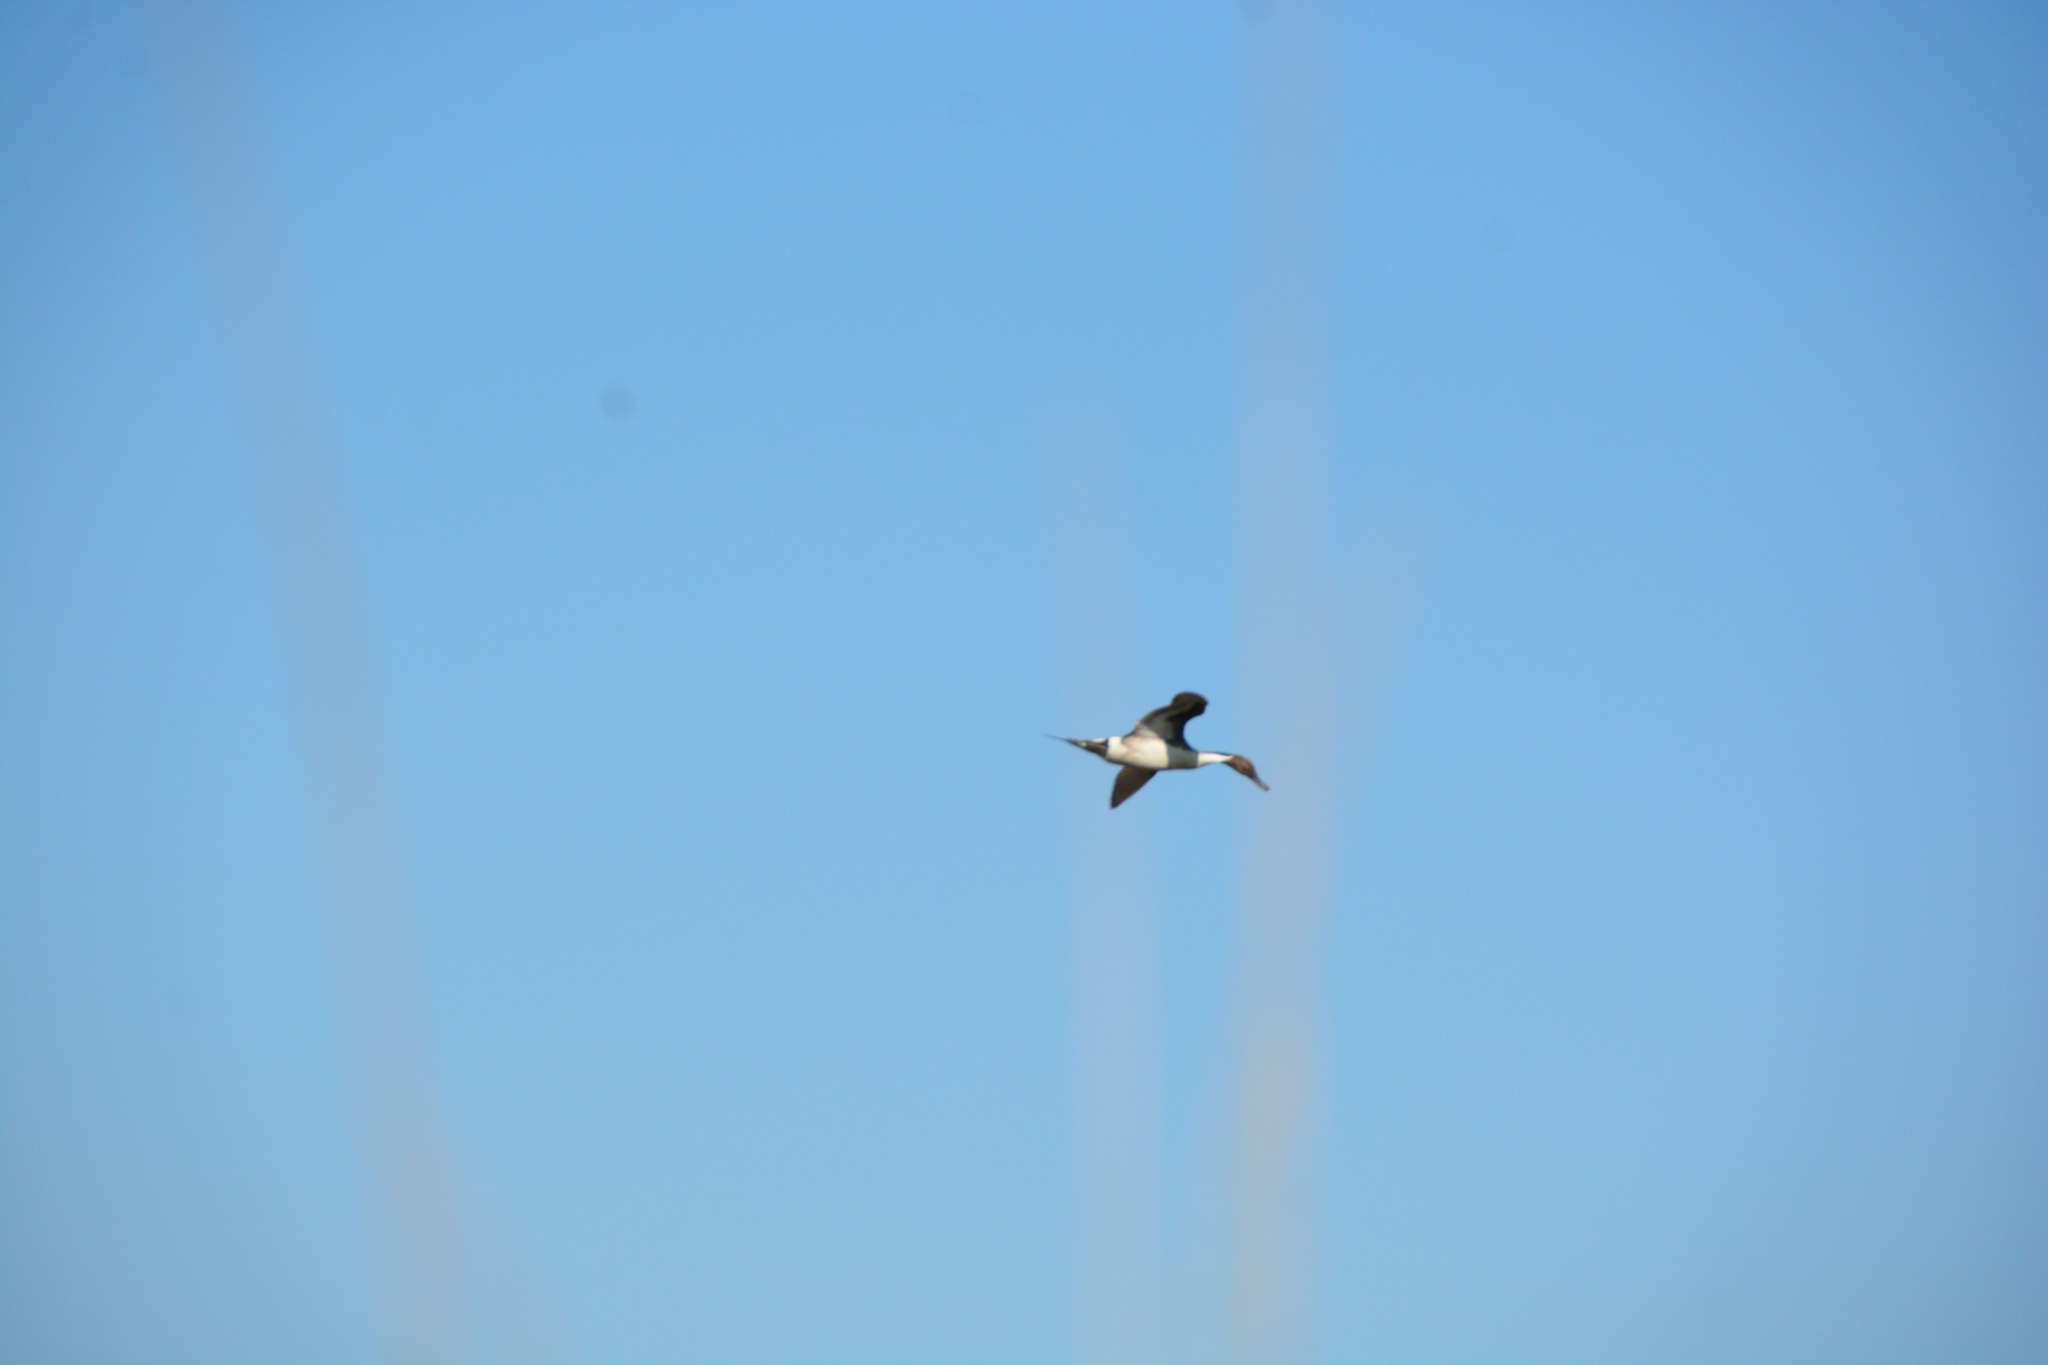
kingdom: Animalia
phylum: Chordata
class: Aves
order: Anseriformes
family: Anatidae
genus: Anas
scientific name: Anas acuta
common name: Northern pintail
